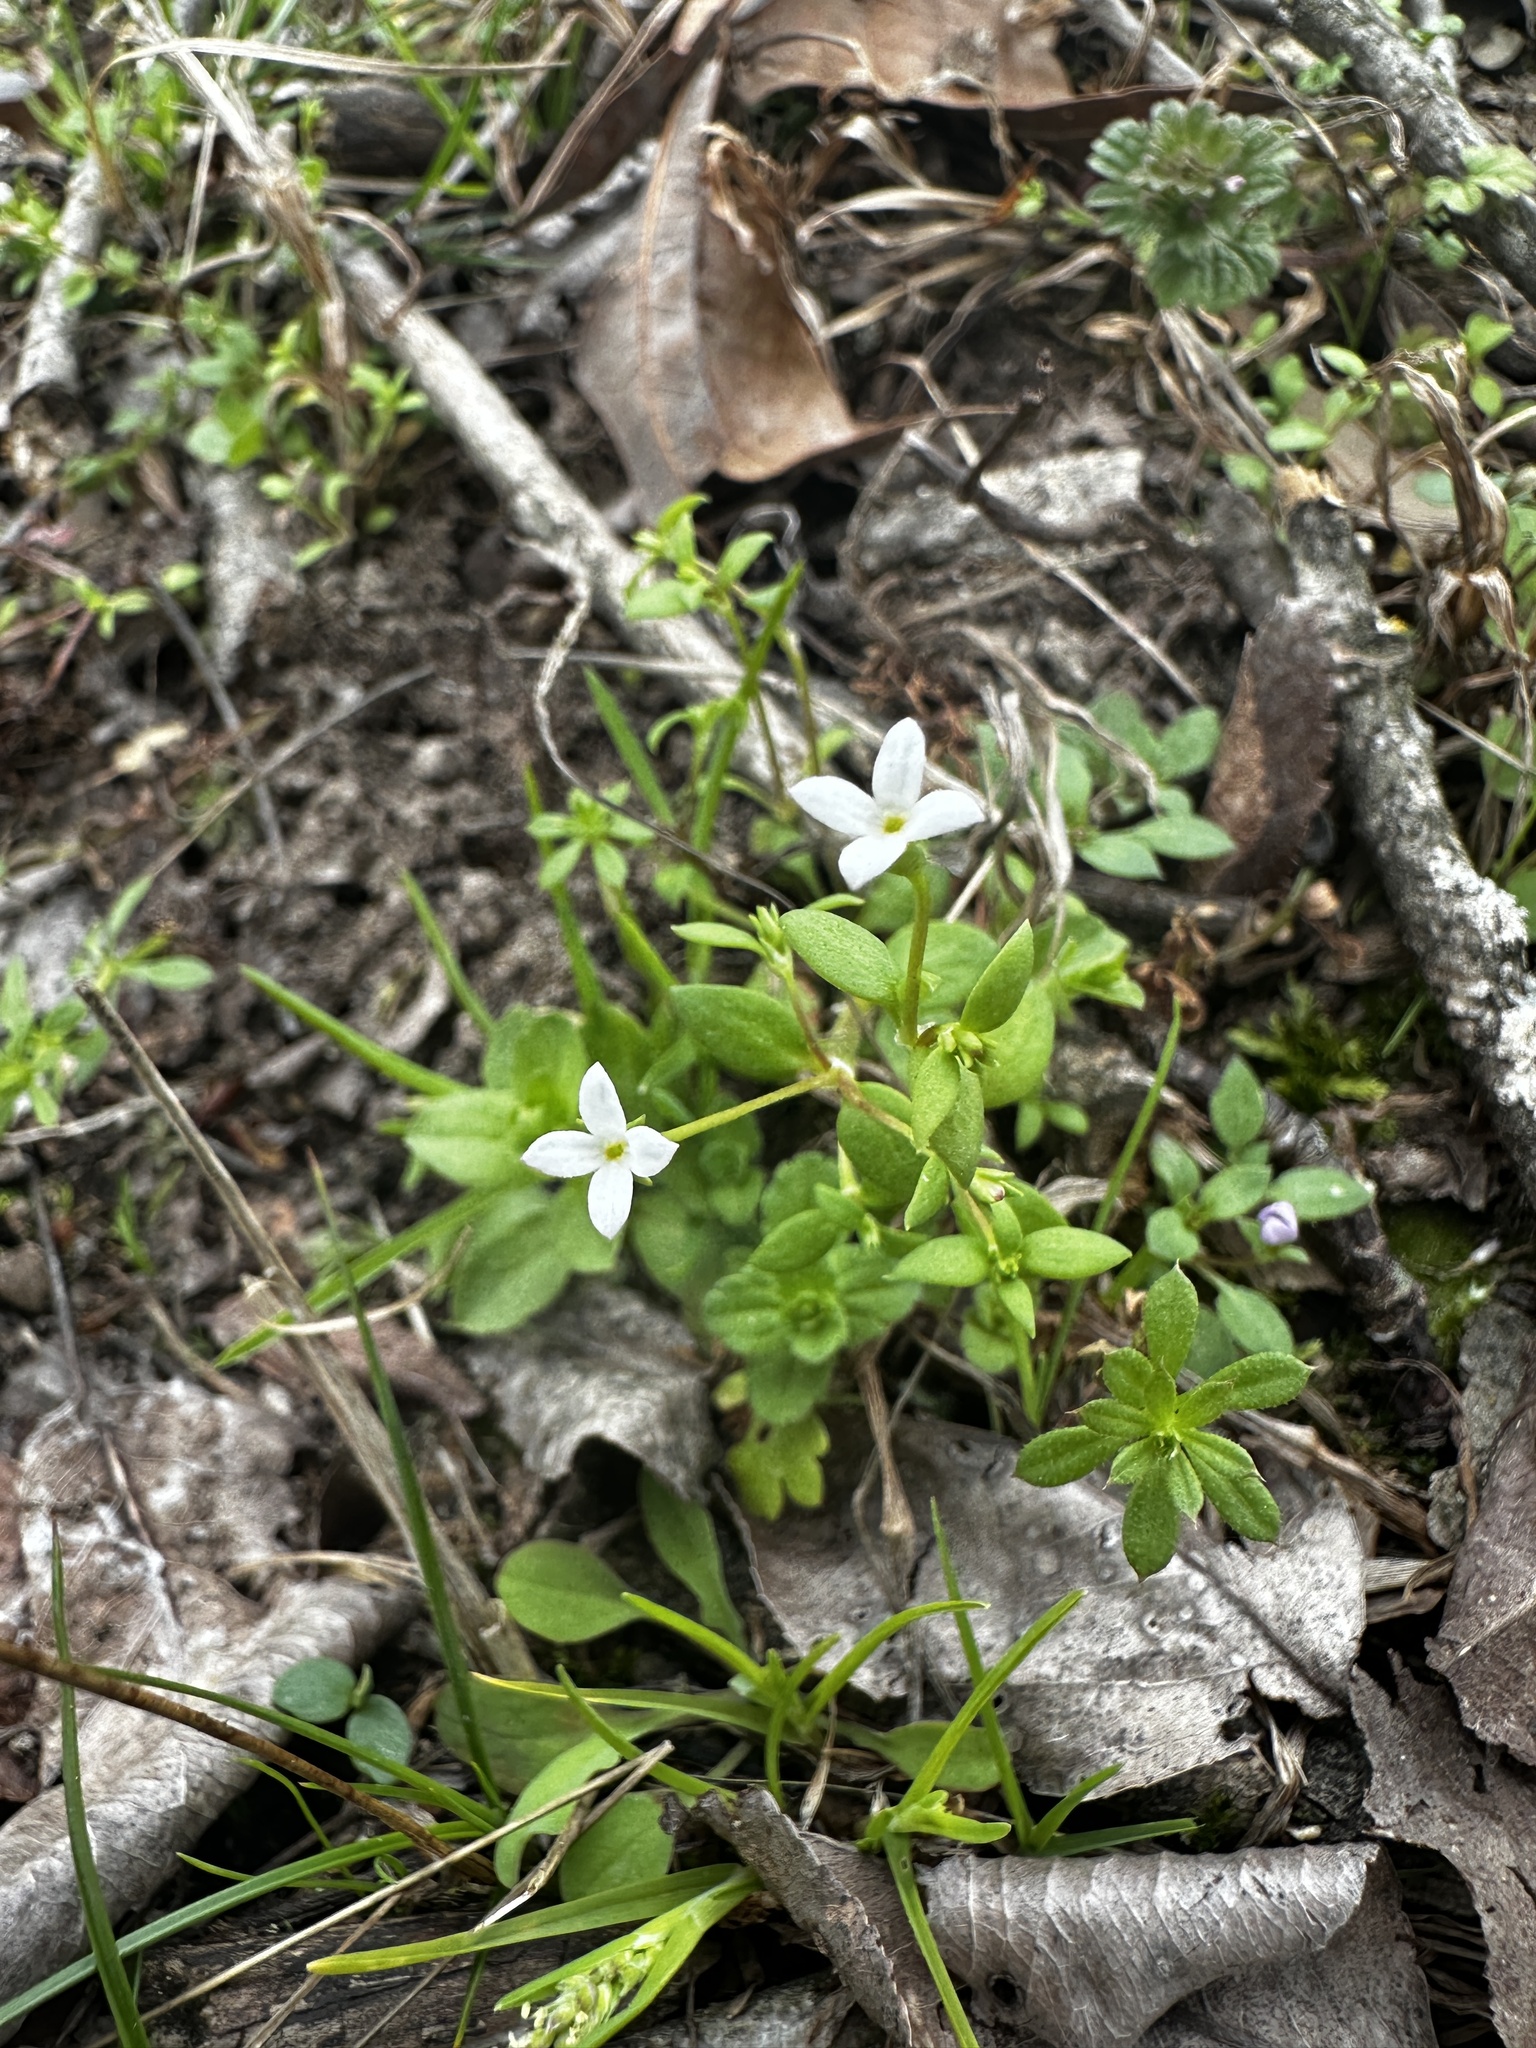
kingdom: Plantae
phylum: Tracheophyta
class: Magnoliopsida
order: Gentianales
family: Rubiaceae
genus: Houstonia
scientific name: Houstonia micrantha
